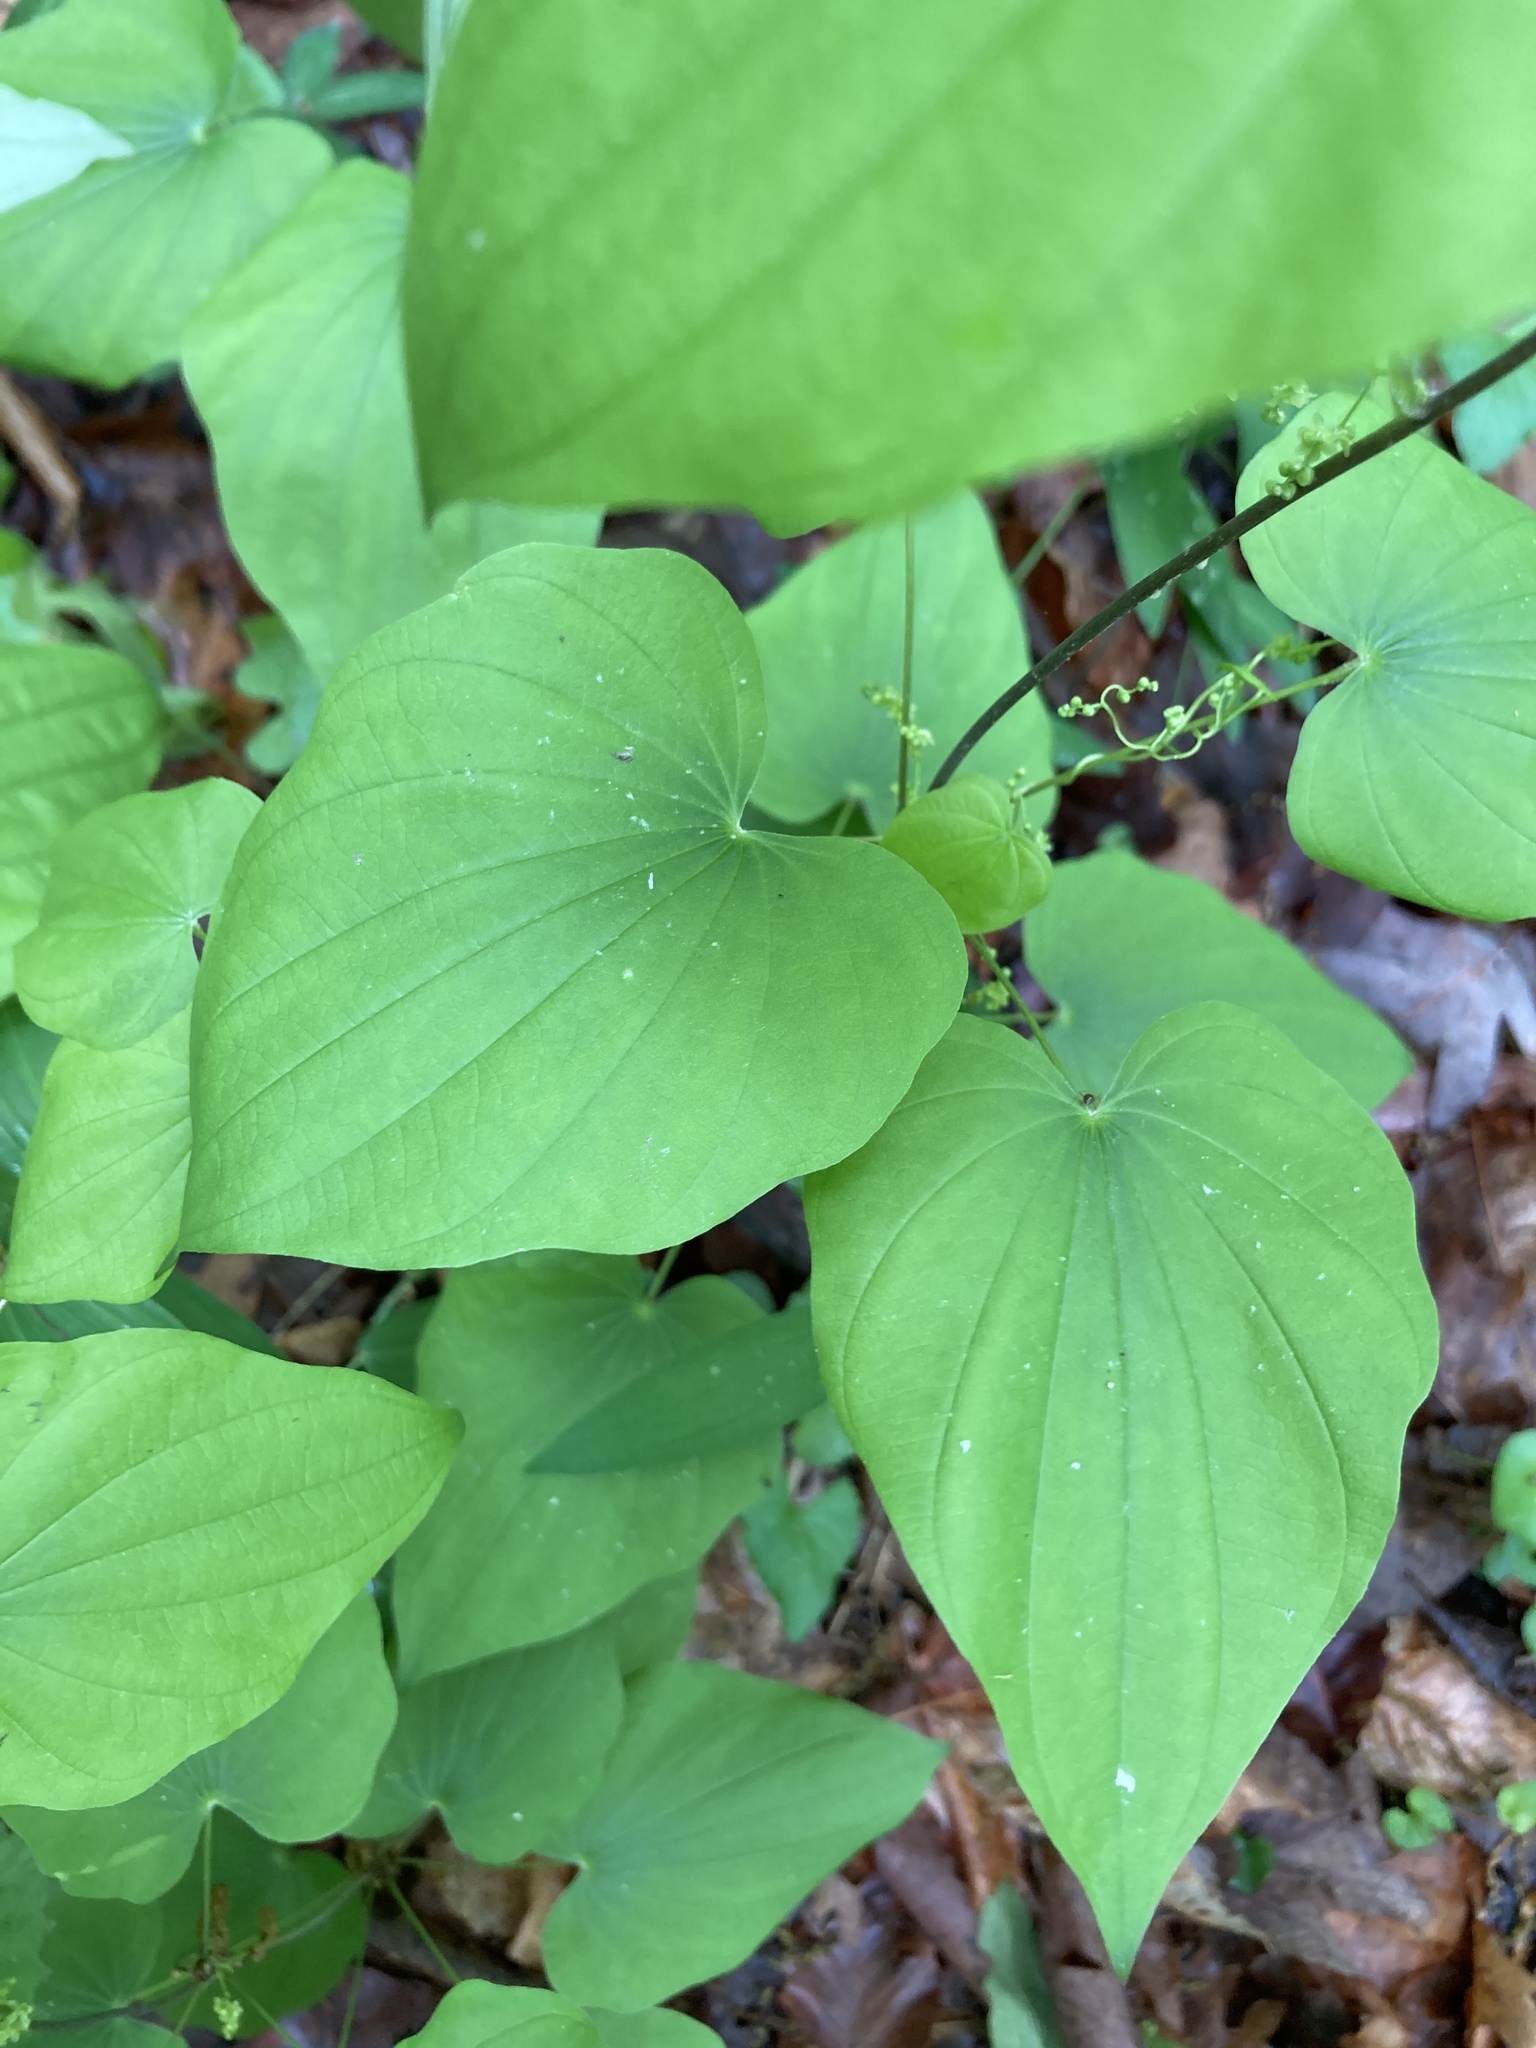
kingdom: Plantae
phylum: Tracheophyta
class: Liliopsida
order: Dioscoreales
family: Dioscoreaceae
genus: Dioscorea
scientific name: Dioscorea villosa
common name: Wild yam
